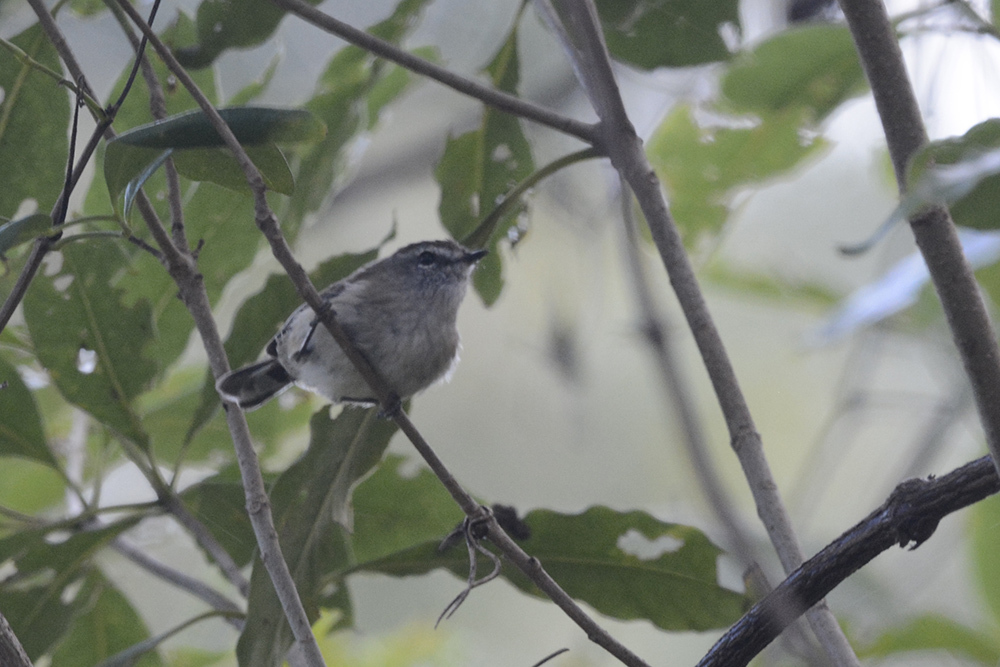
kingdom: Animalia
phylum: Chordata
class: Aves
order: Passeriformes
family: Acanthizidae
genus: Gerygone
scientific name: Gerygone mouki
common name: Brown gerygone
